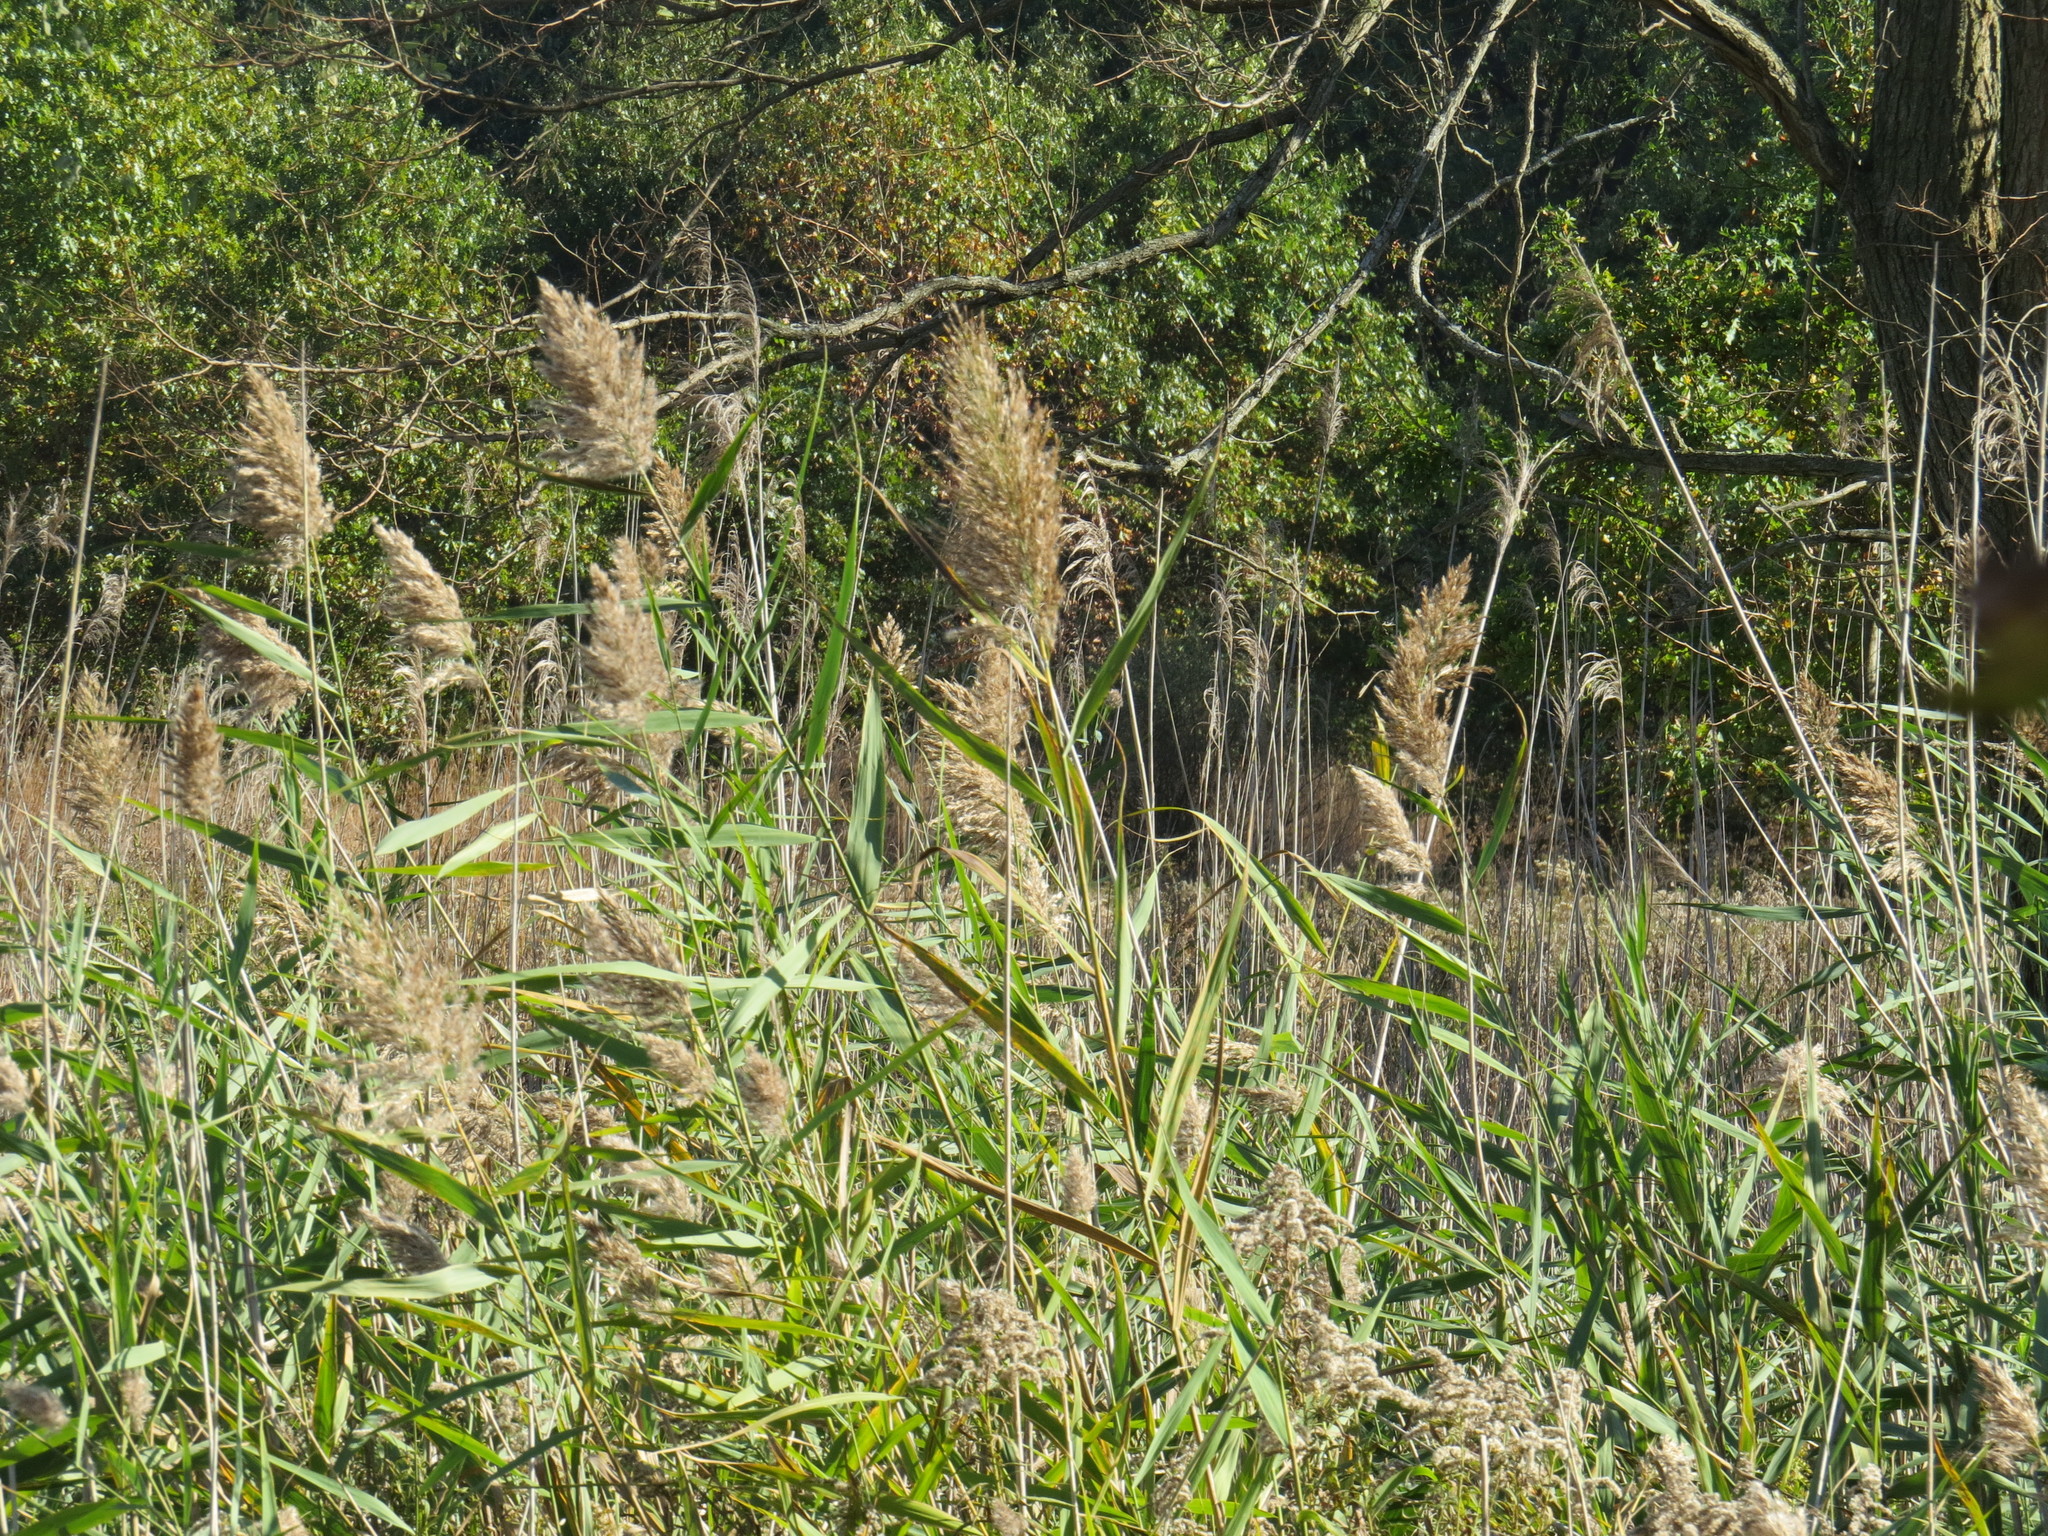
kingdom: Plantae
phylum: Tracheophyta
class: Liliopsida
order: Poales
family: Poaceae
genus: Phragmites
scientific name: Phragmites australis
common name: Common reed
